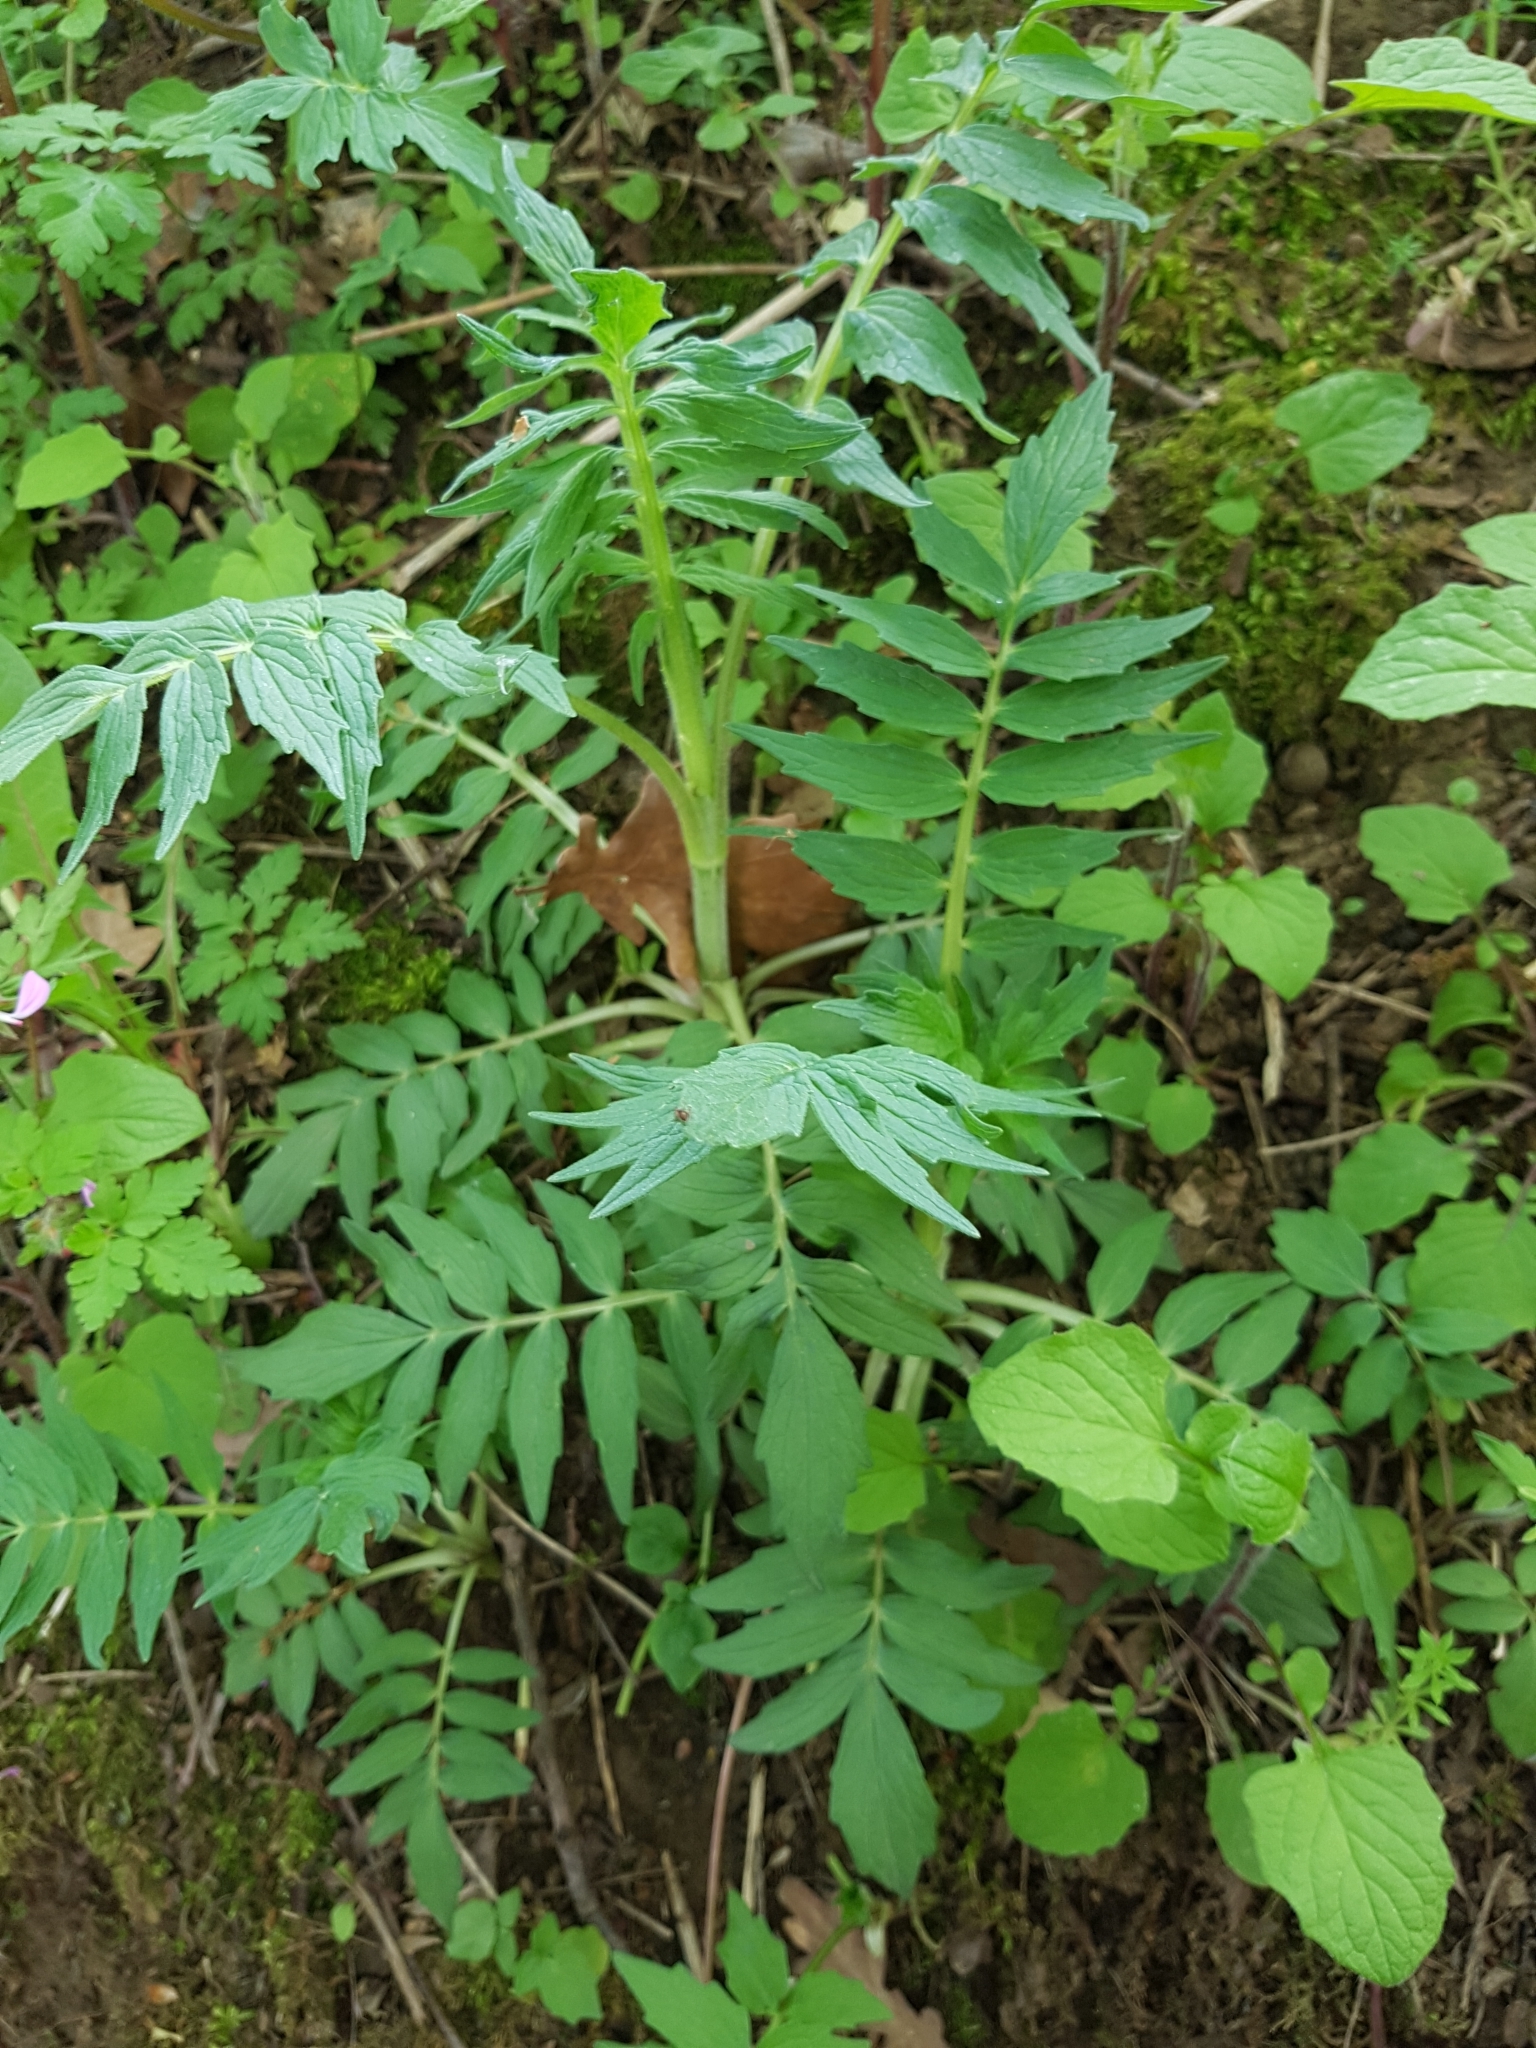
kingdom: Plantae
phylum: Tracheophyta
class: Magnoliopsida
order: Dipsacales
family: Caprifoliaceae
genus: Valeriana
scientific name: Valeriana officinalis
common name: Common valerian
